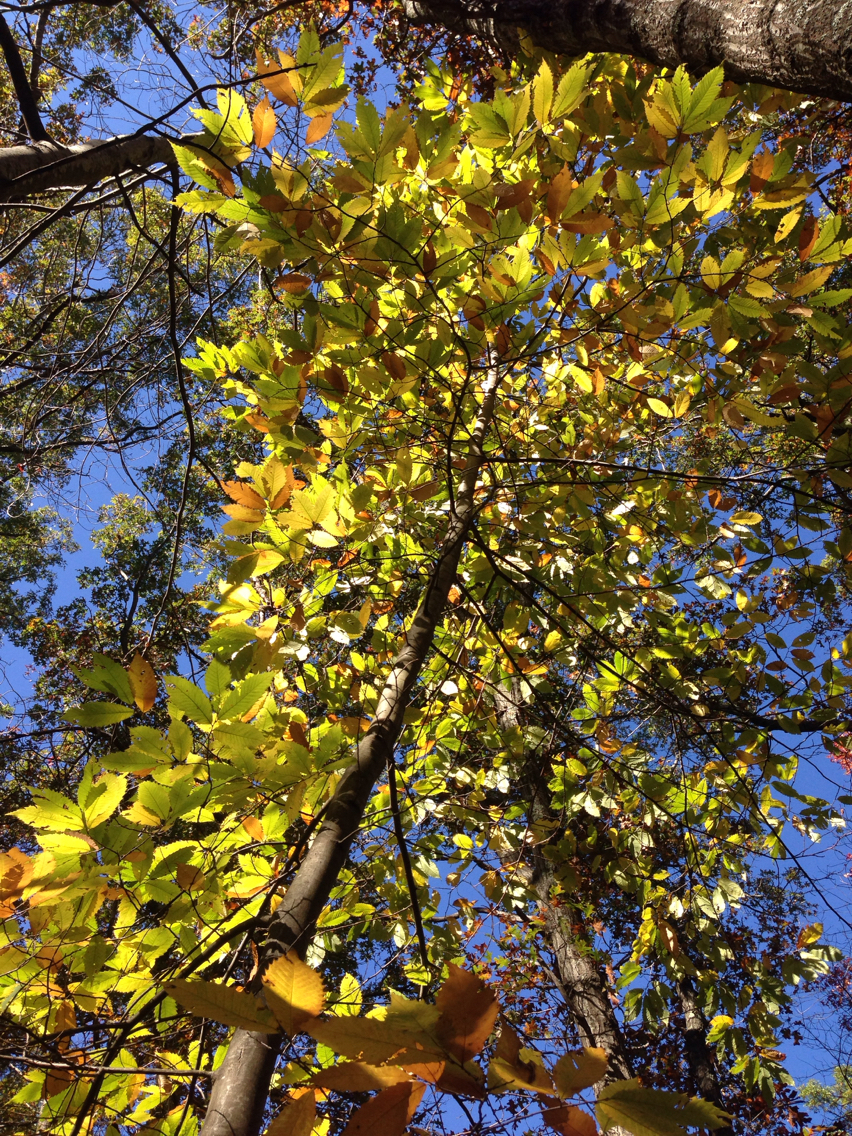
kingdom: Plantae
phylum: Tracheophyta
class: Magnoliopsida
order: Fagales
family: Fagaceae
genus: Castanea
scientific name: Castanea dentata
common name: American chestnut
